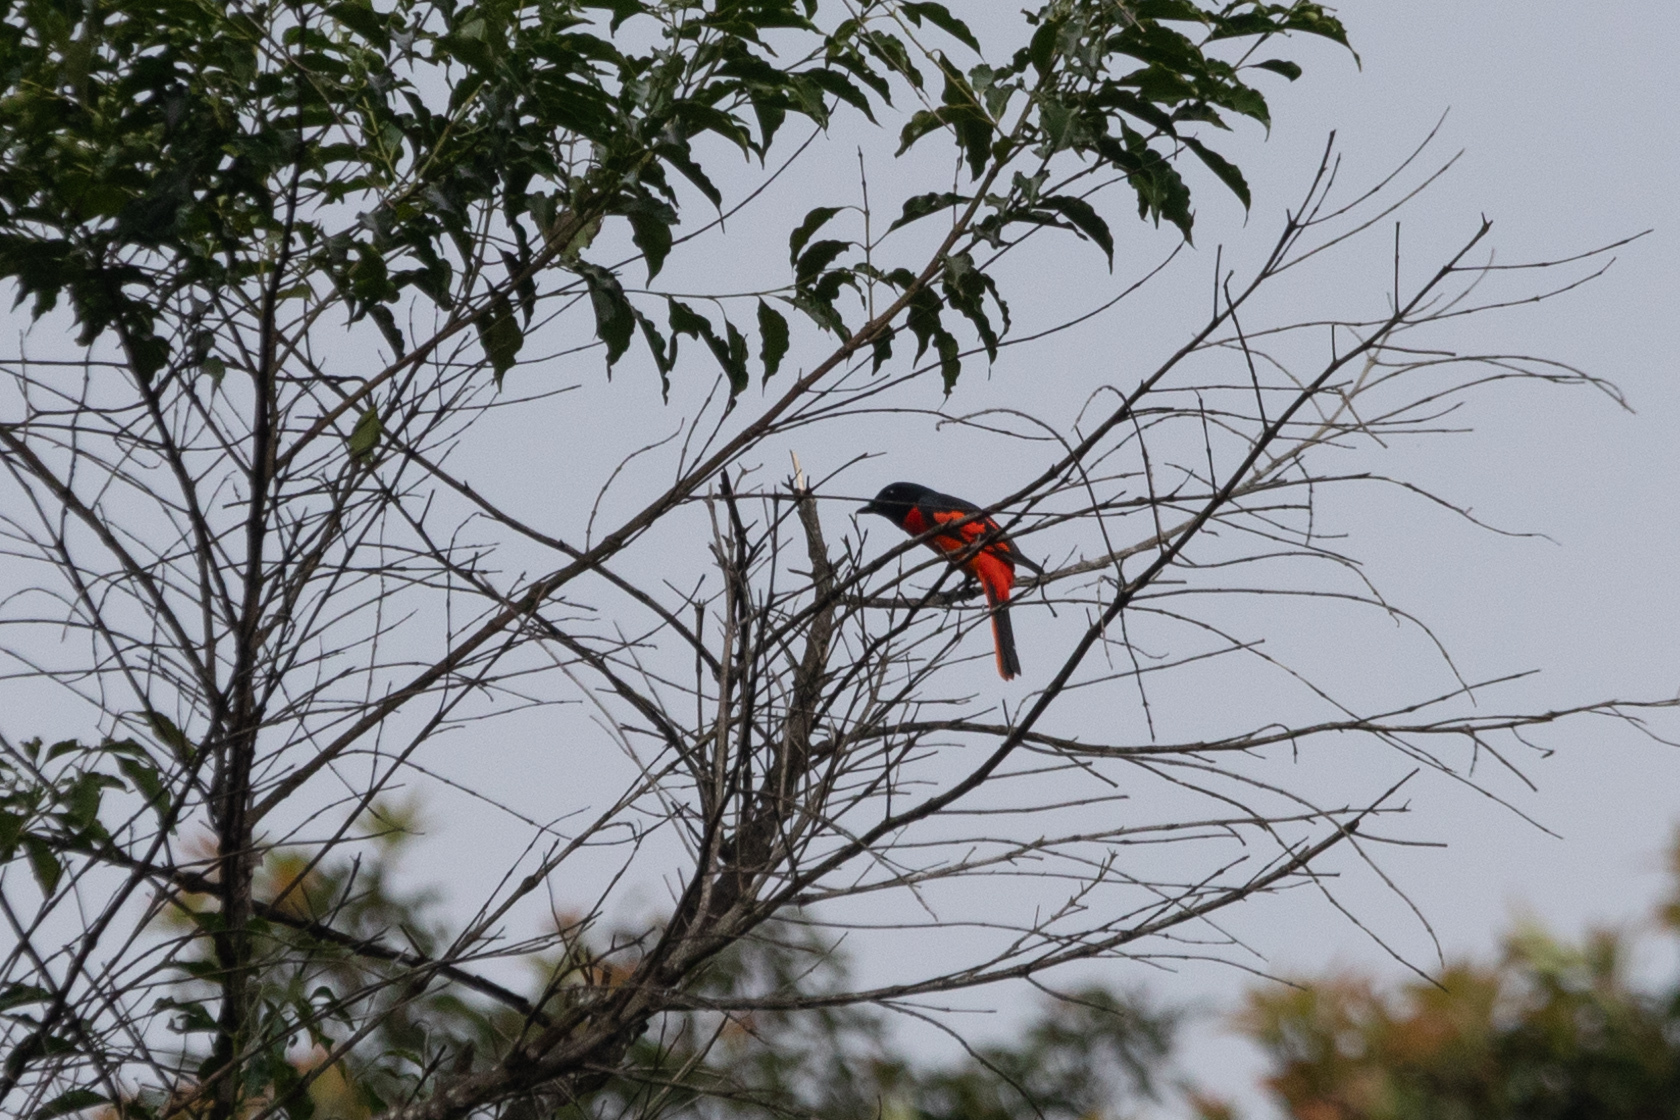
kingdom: Animalia
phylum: Chordata
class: Aves
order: Passeriformes
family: Campephagidae
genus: Pericrocotus
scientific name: Pericrocotus speciosus
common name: Scarlet minivet
